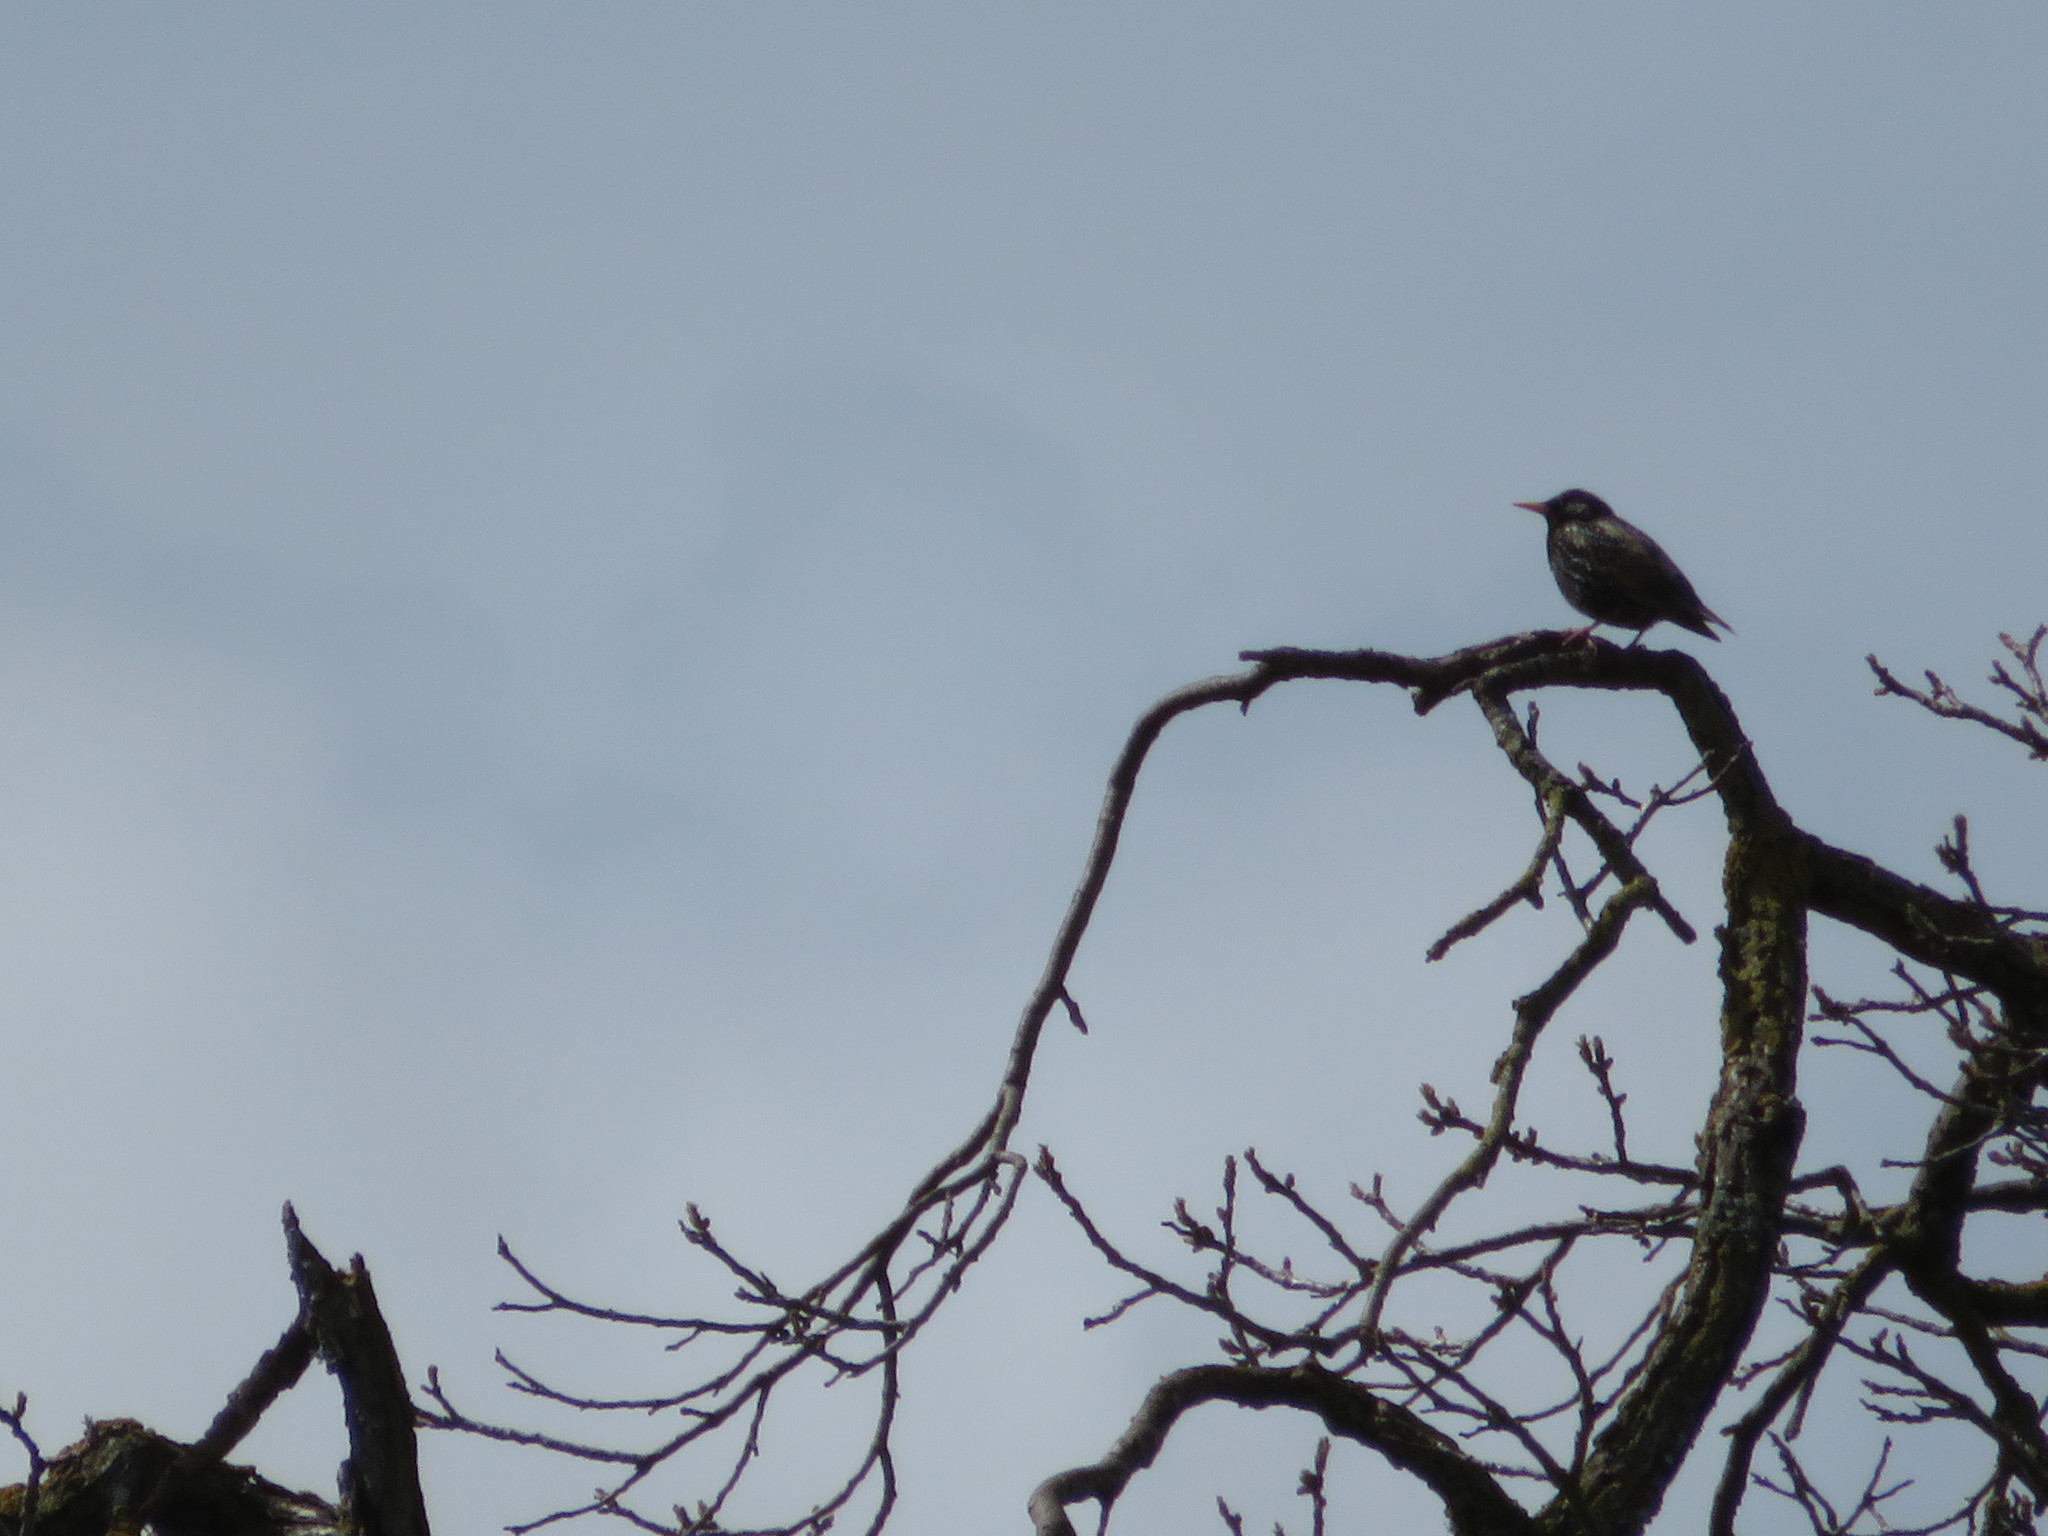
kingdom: Animalia
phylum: Chordata
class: Aves
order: Passeriformes
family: Sturnidae
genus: Sturnus
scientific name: Sturnus vulgaris
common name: Common starling
